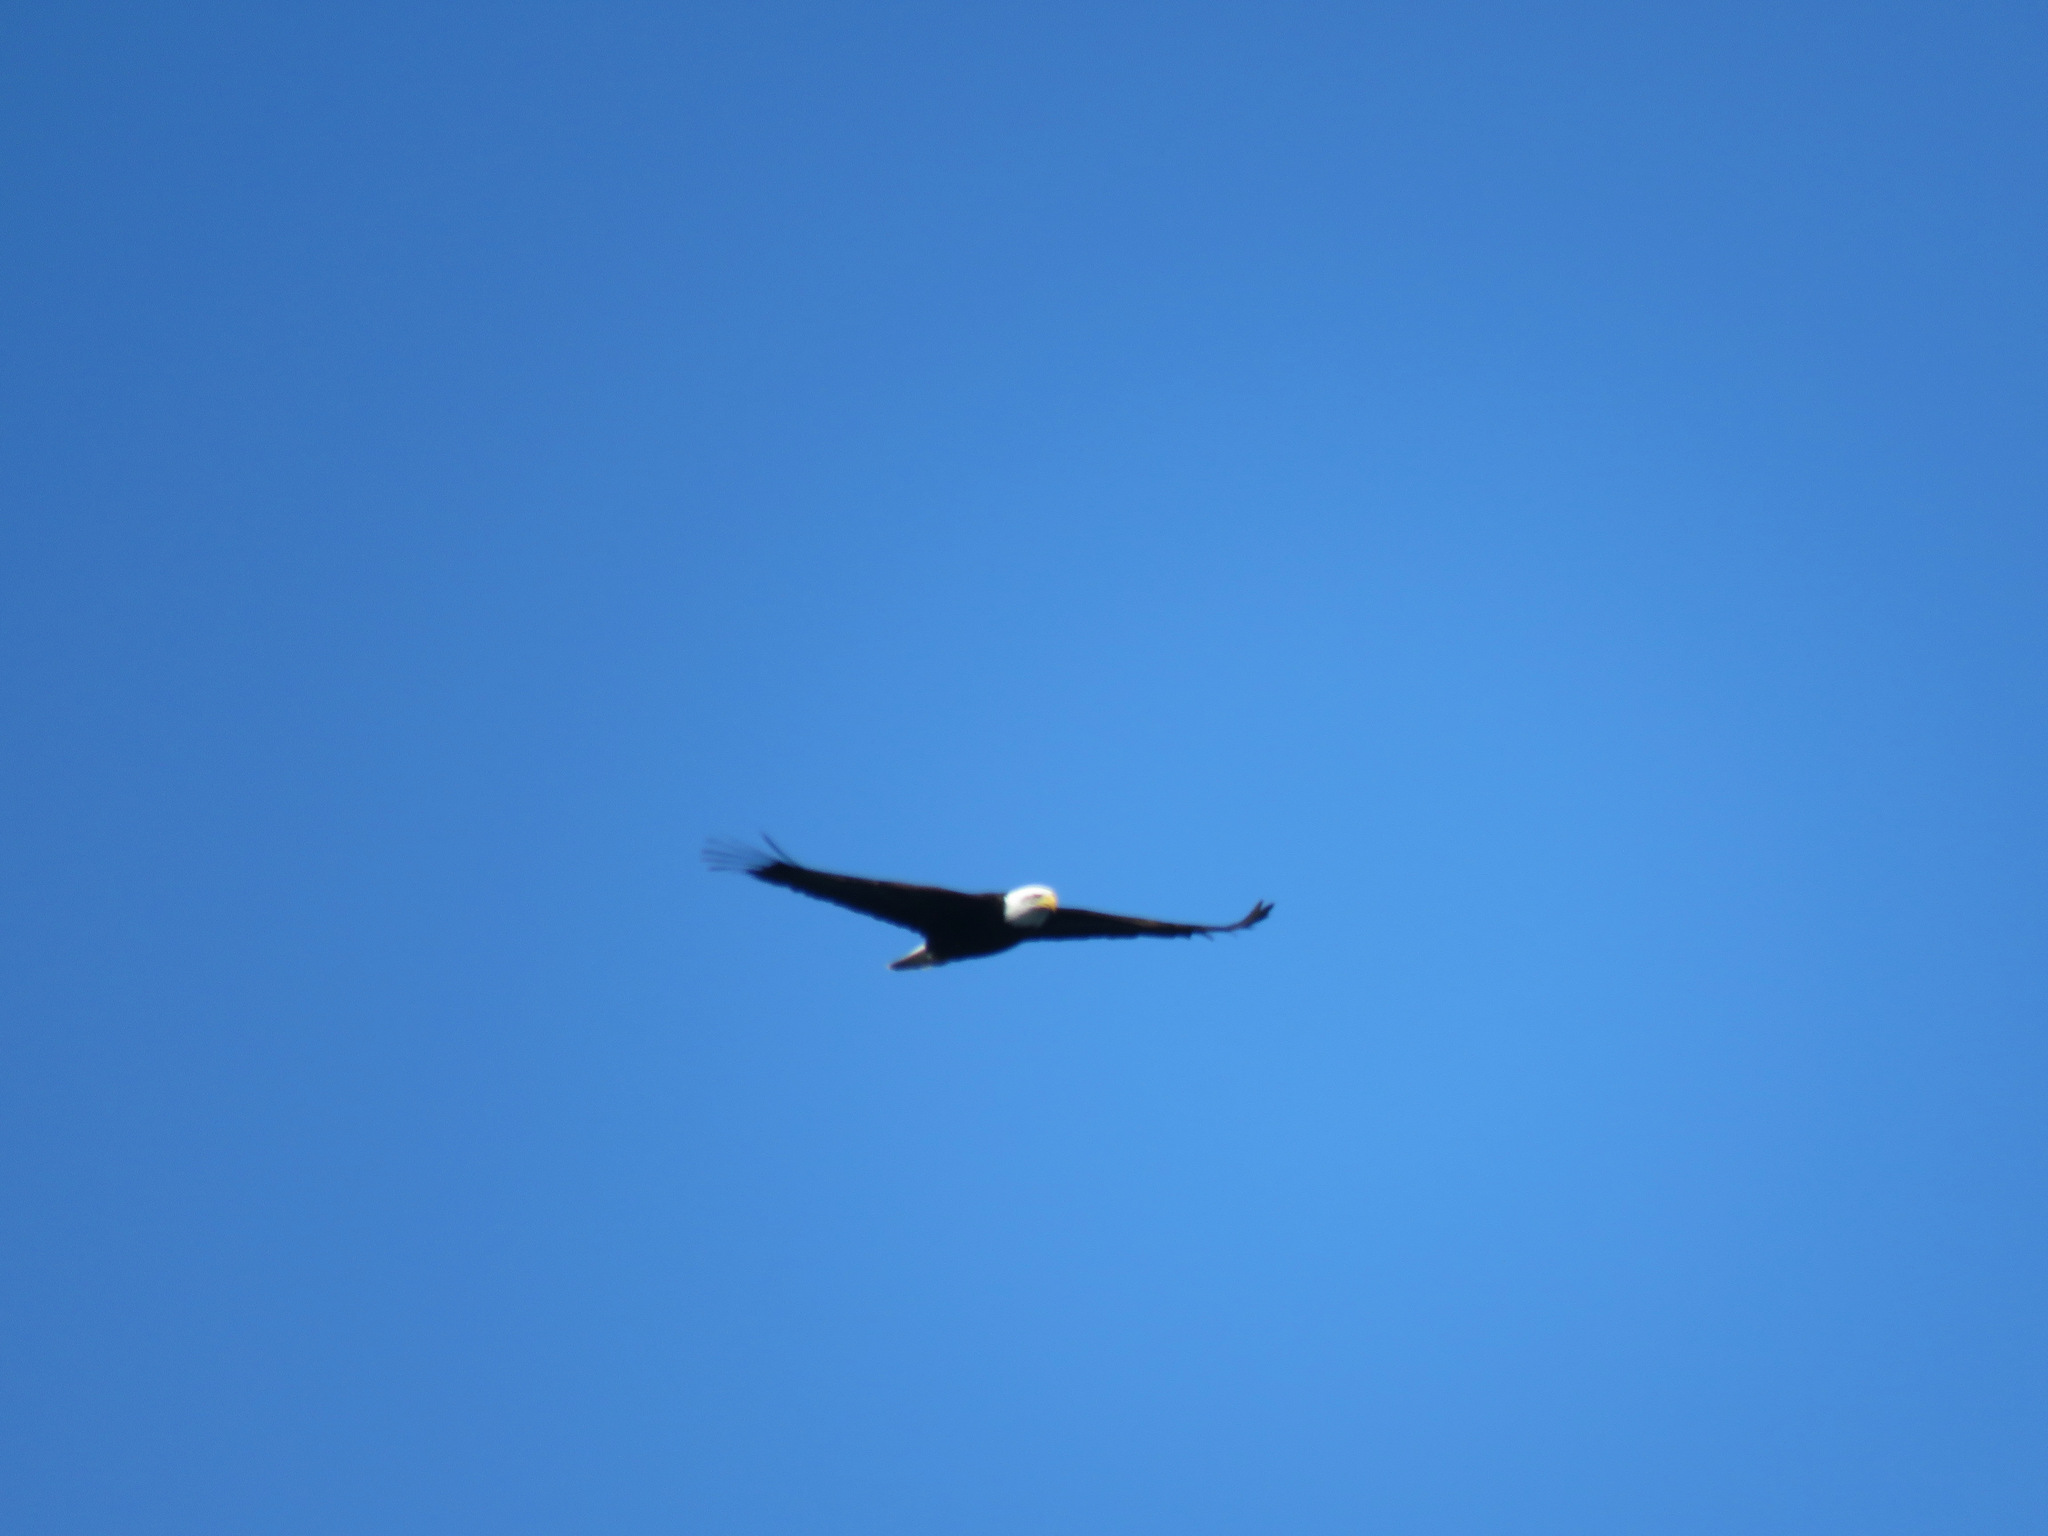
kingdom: Animalia
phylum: Chordata
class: Aves
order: Accipitriformes
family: Accipitridae
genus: Haliaeetus
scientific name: Haliaeetus leucocephalus
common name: Bald eagle
